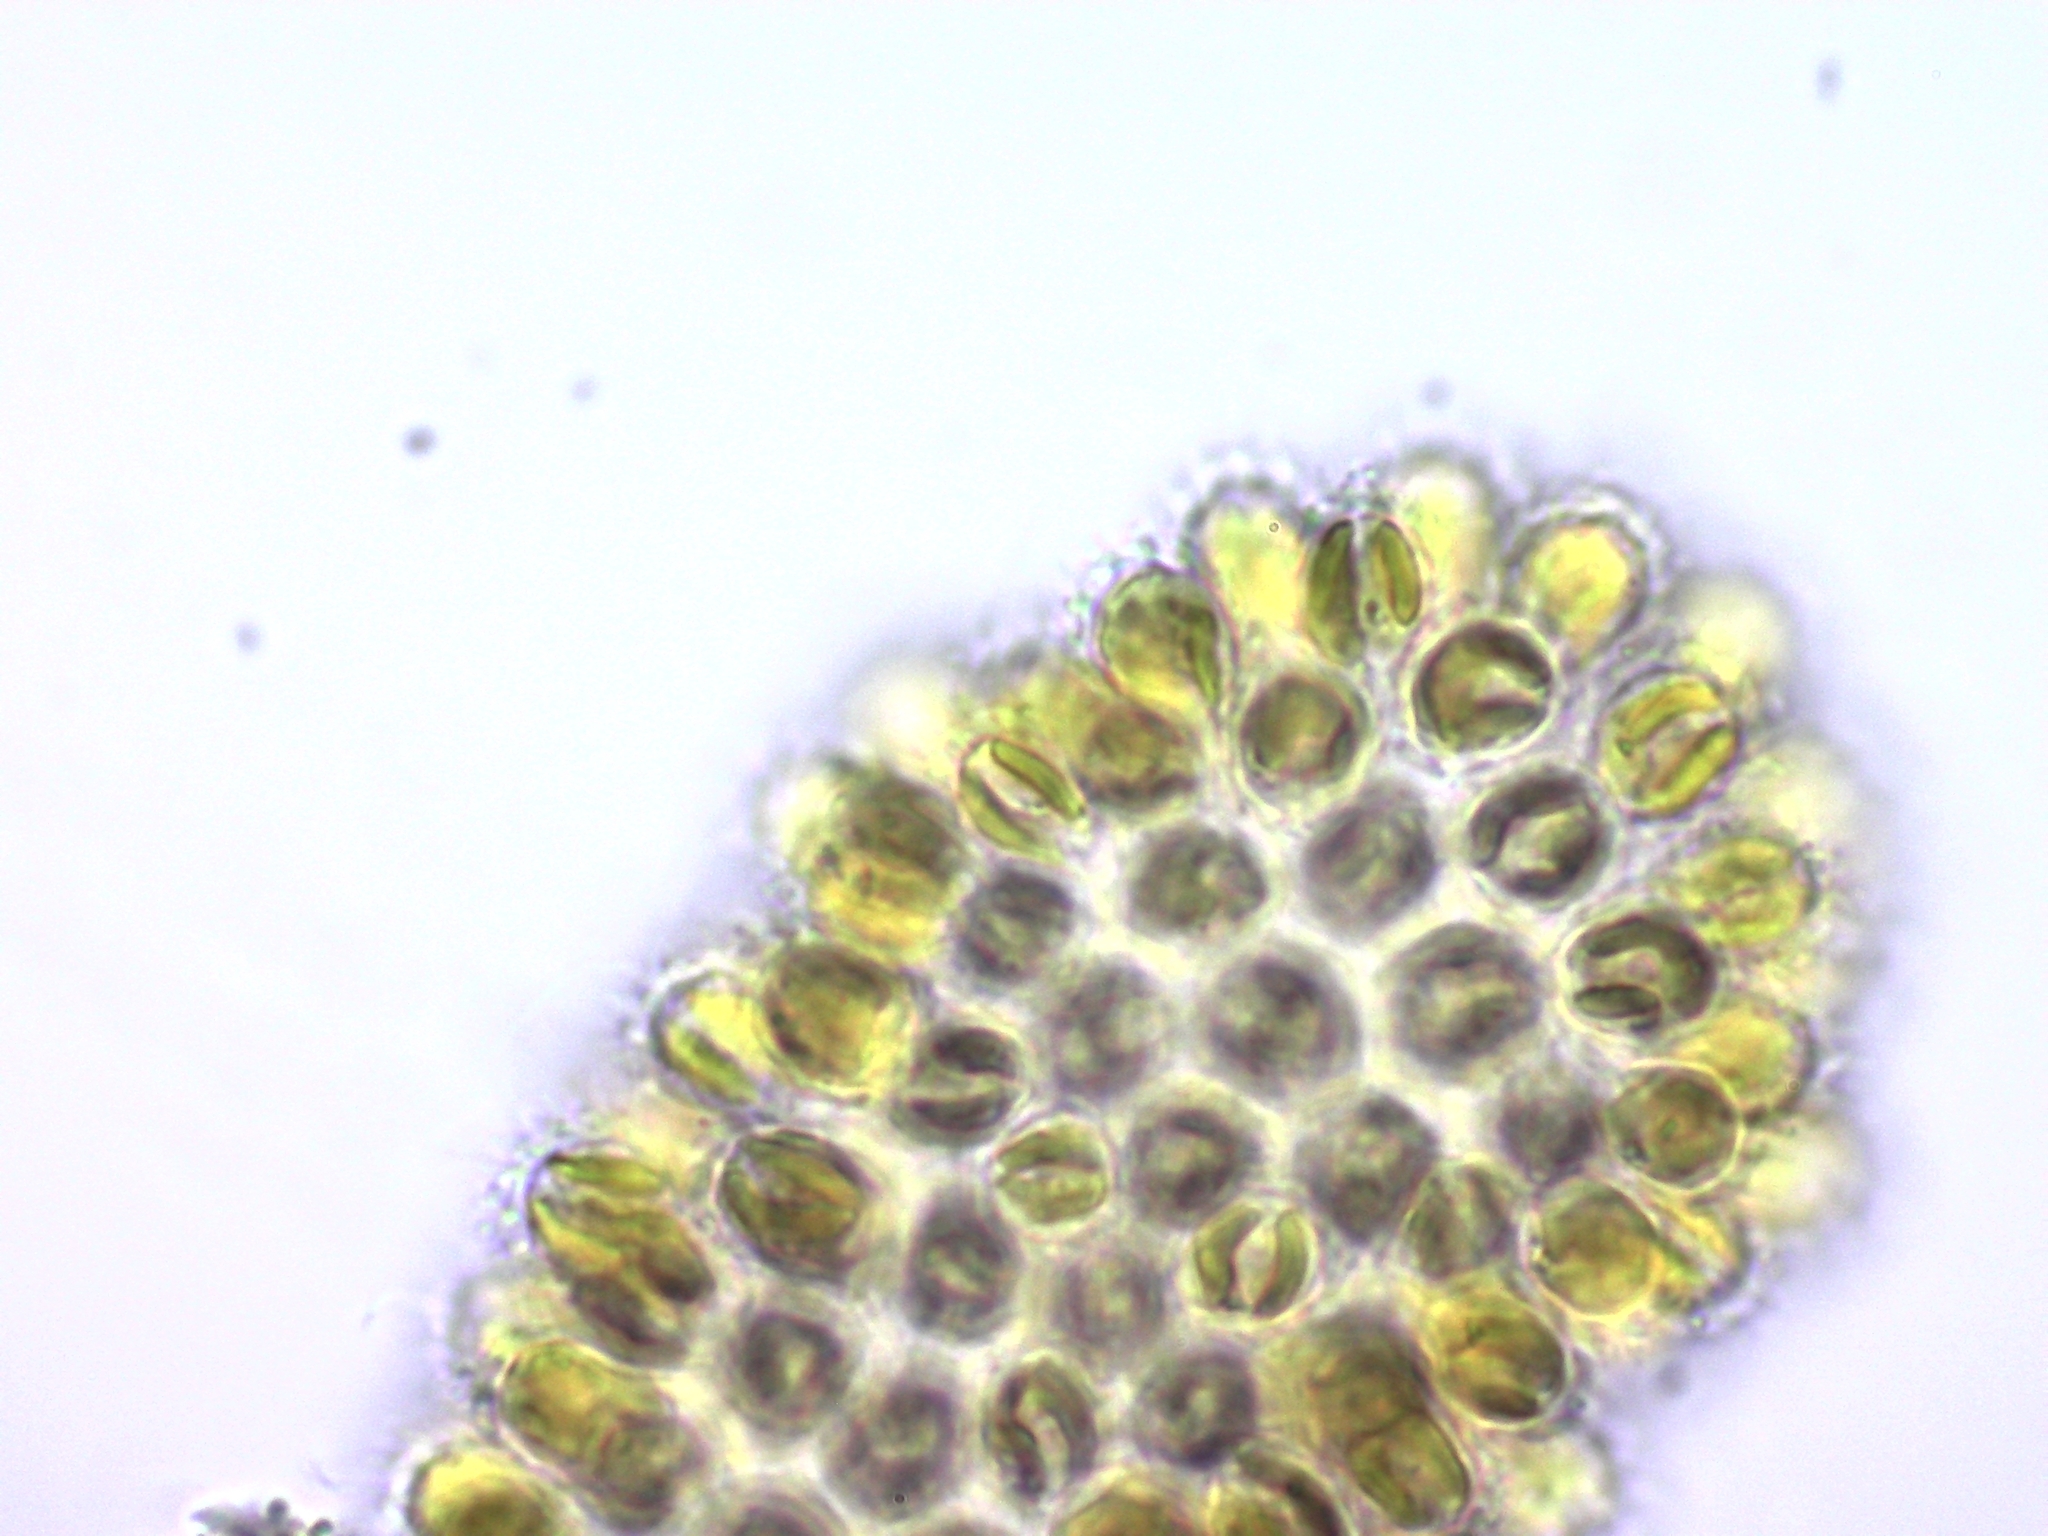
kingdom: Chromista
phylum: Ochrophyta
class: Synurophyceae
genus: Synura
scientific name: Synura
